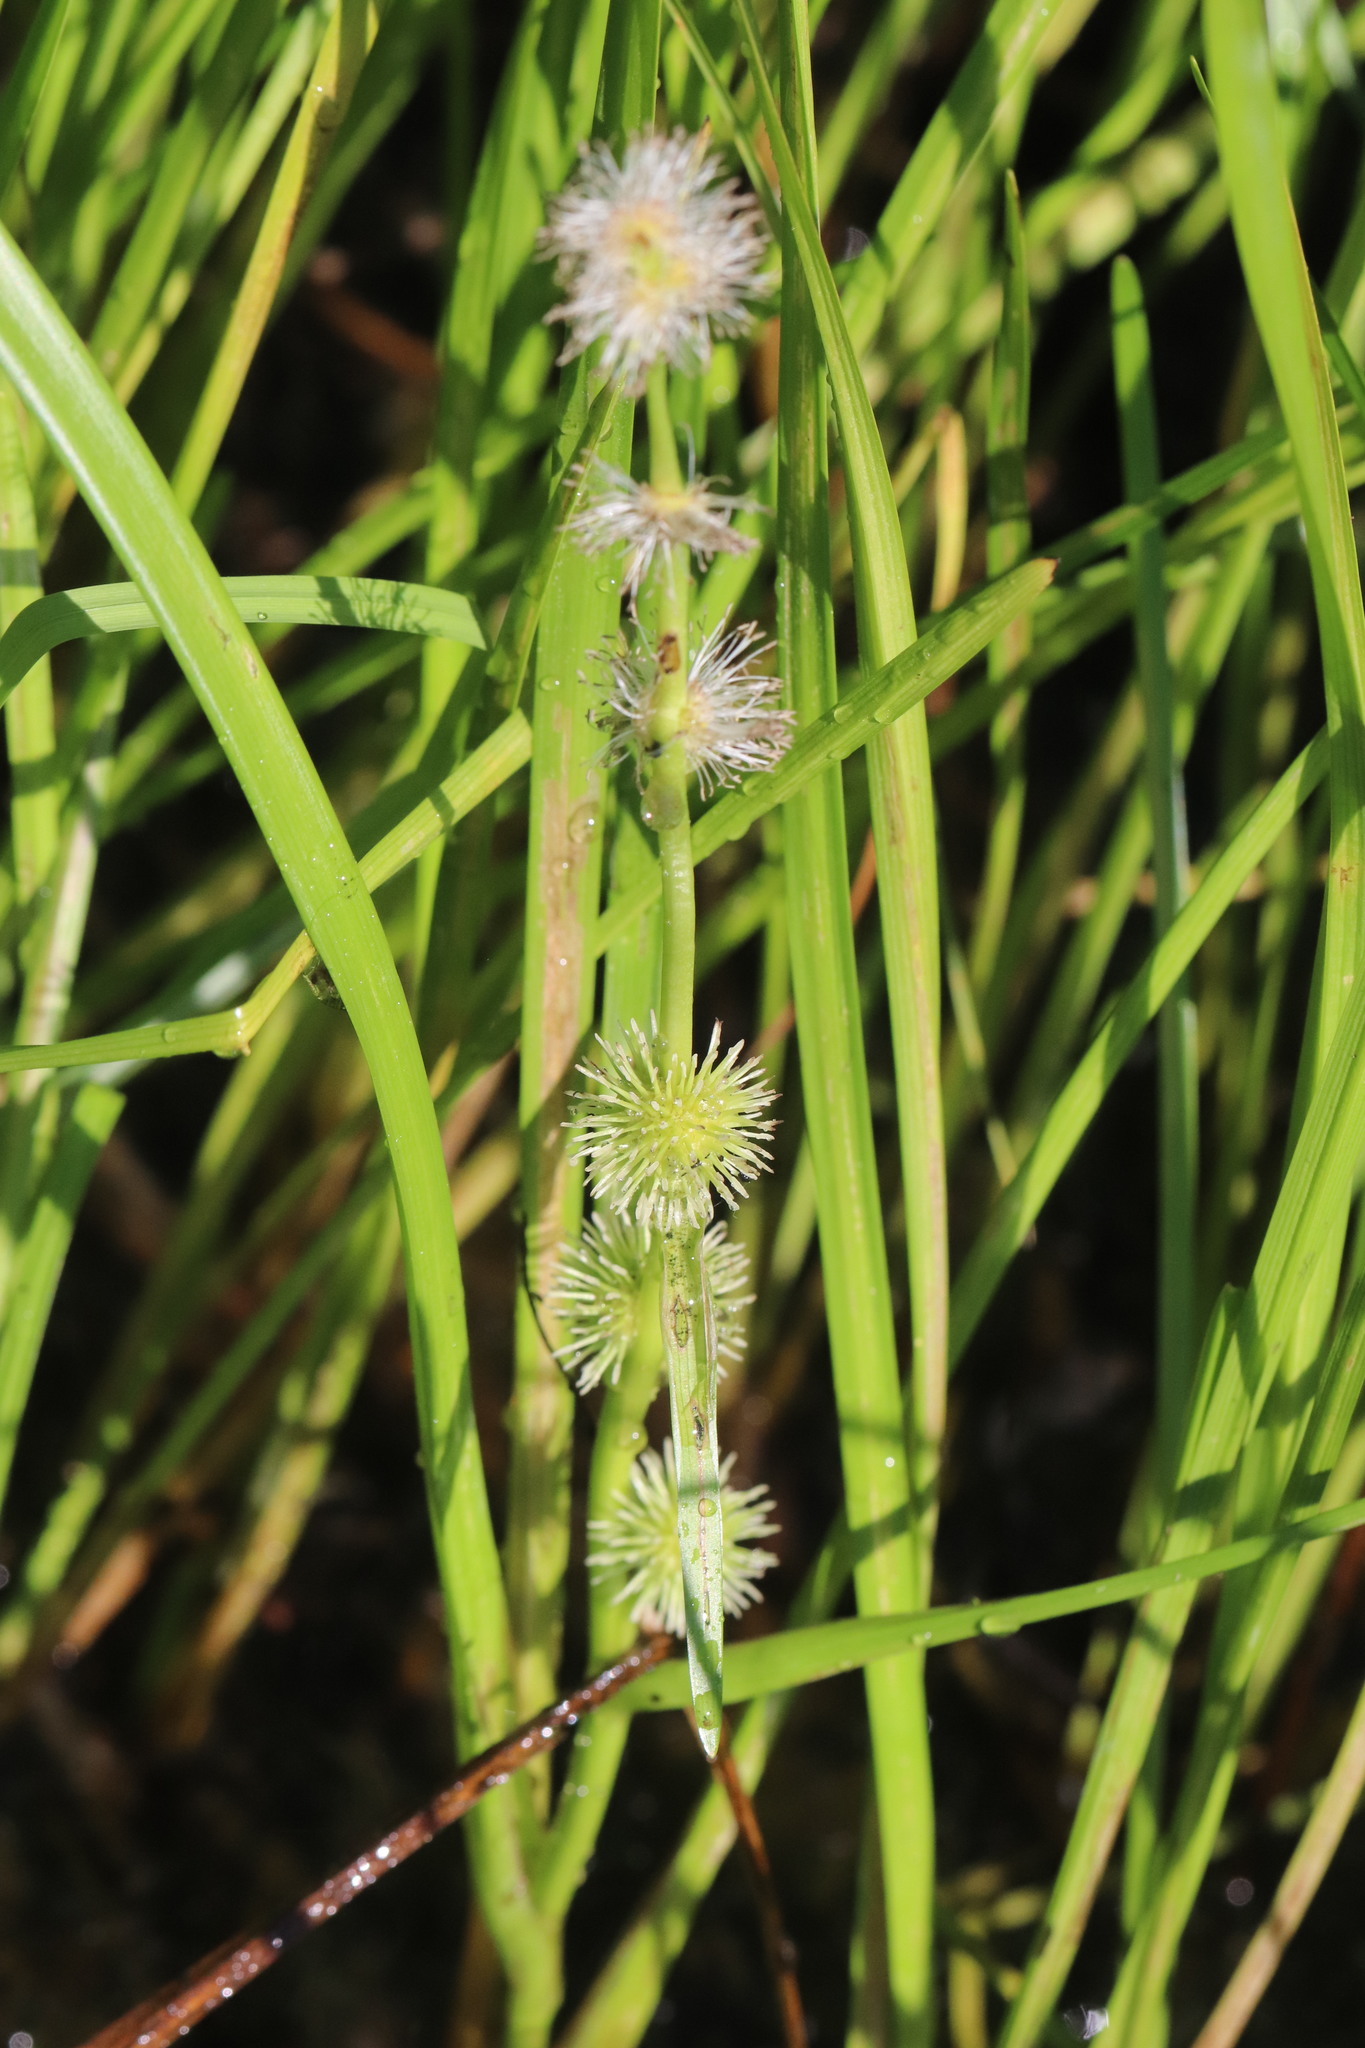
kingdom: Plantae
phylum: Tracheophyta
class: Liliopsida
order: Poales
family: Typhaceae
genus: Sparganium
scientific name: Sparganium emersum
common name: Unbranched bur-reed
